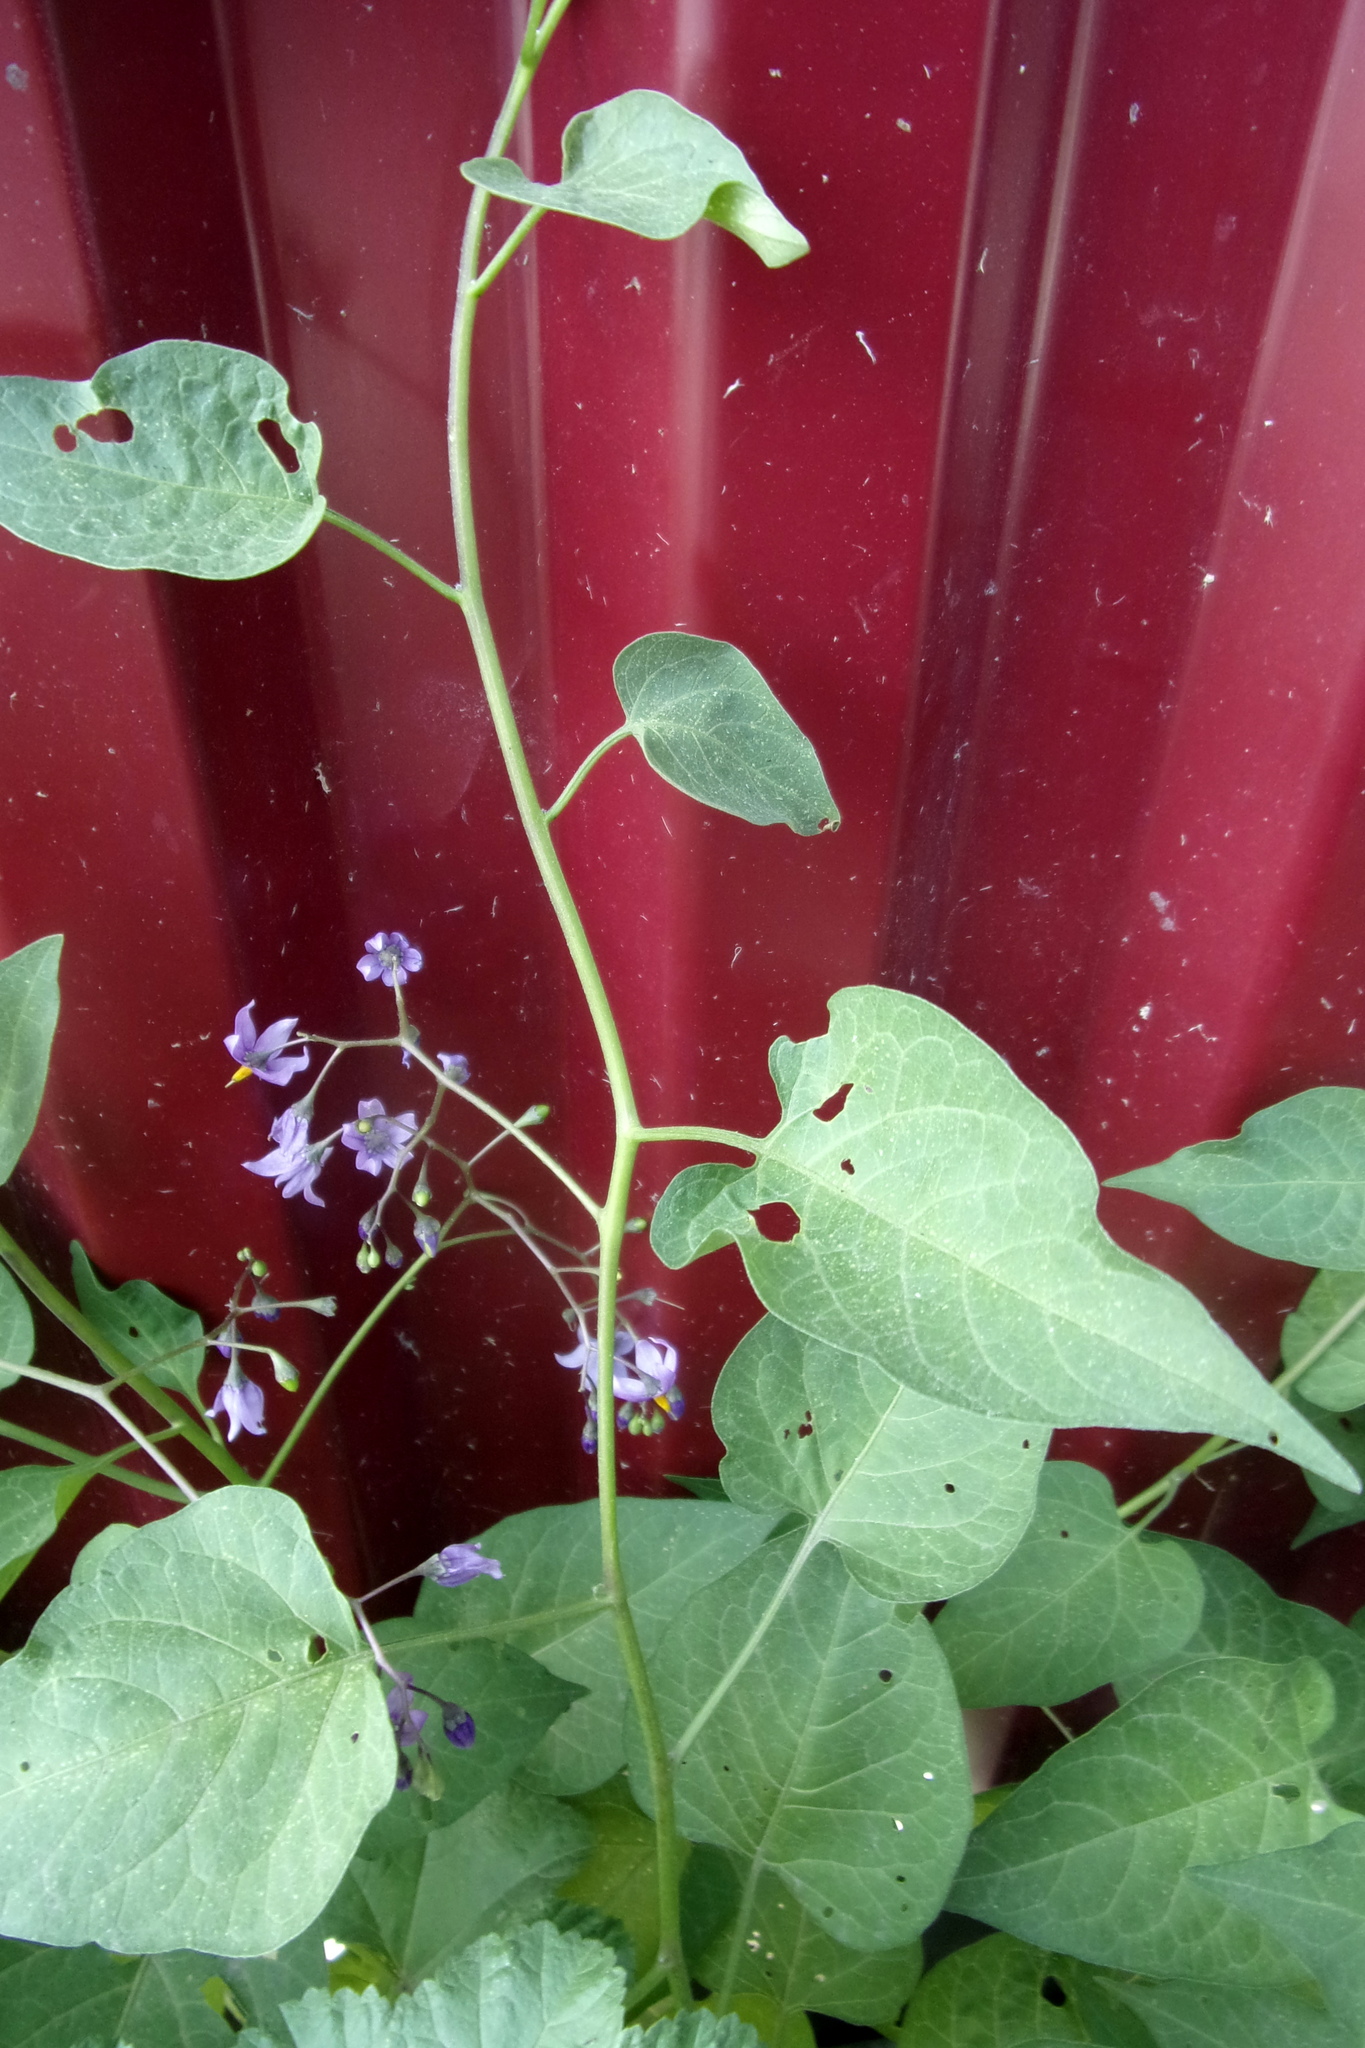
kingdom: Plantae
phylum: Tracheophyta
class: Magnoliopsida
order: Solanales
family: Solanaceae
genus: Solanum
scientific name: Solanum dulcamara
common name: Climbing nightshade
